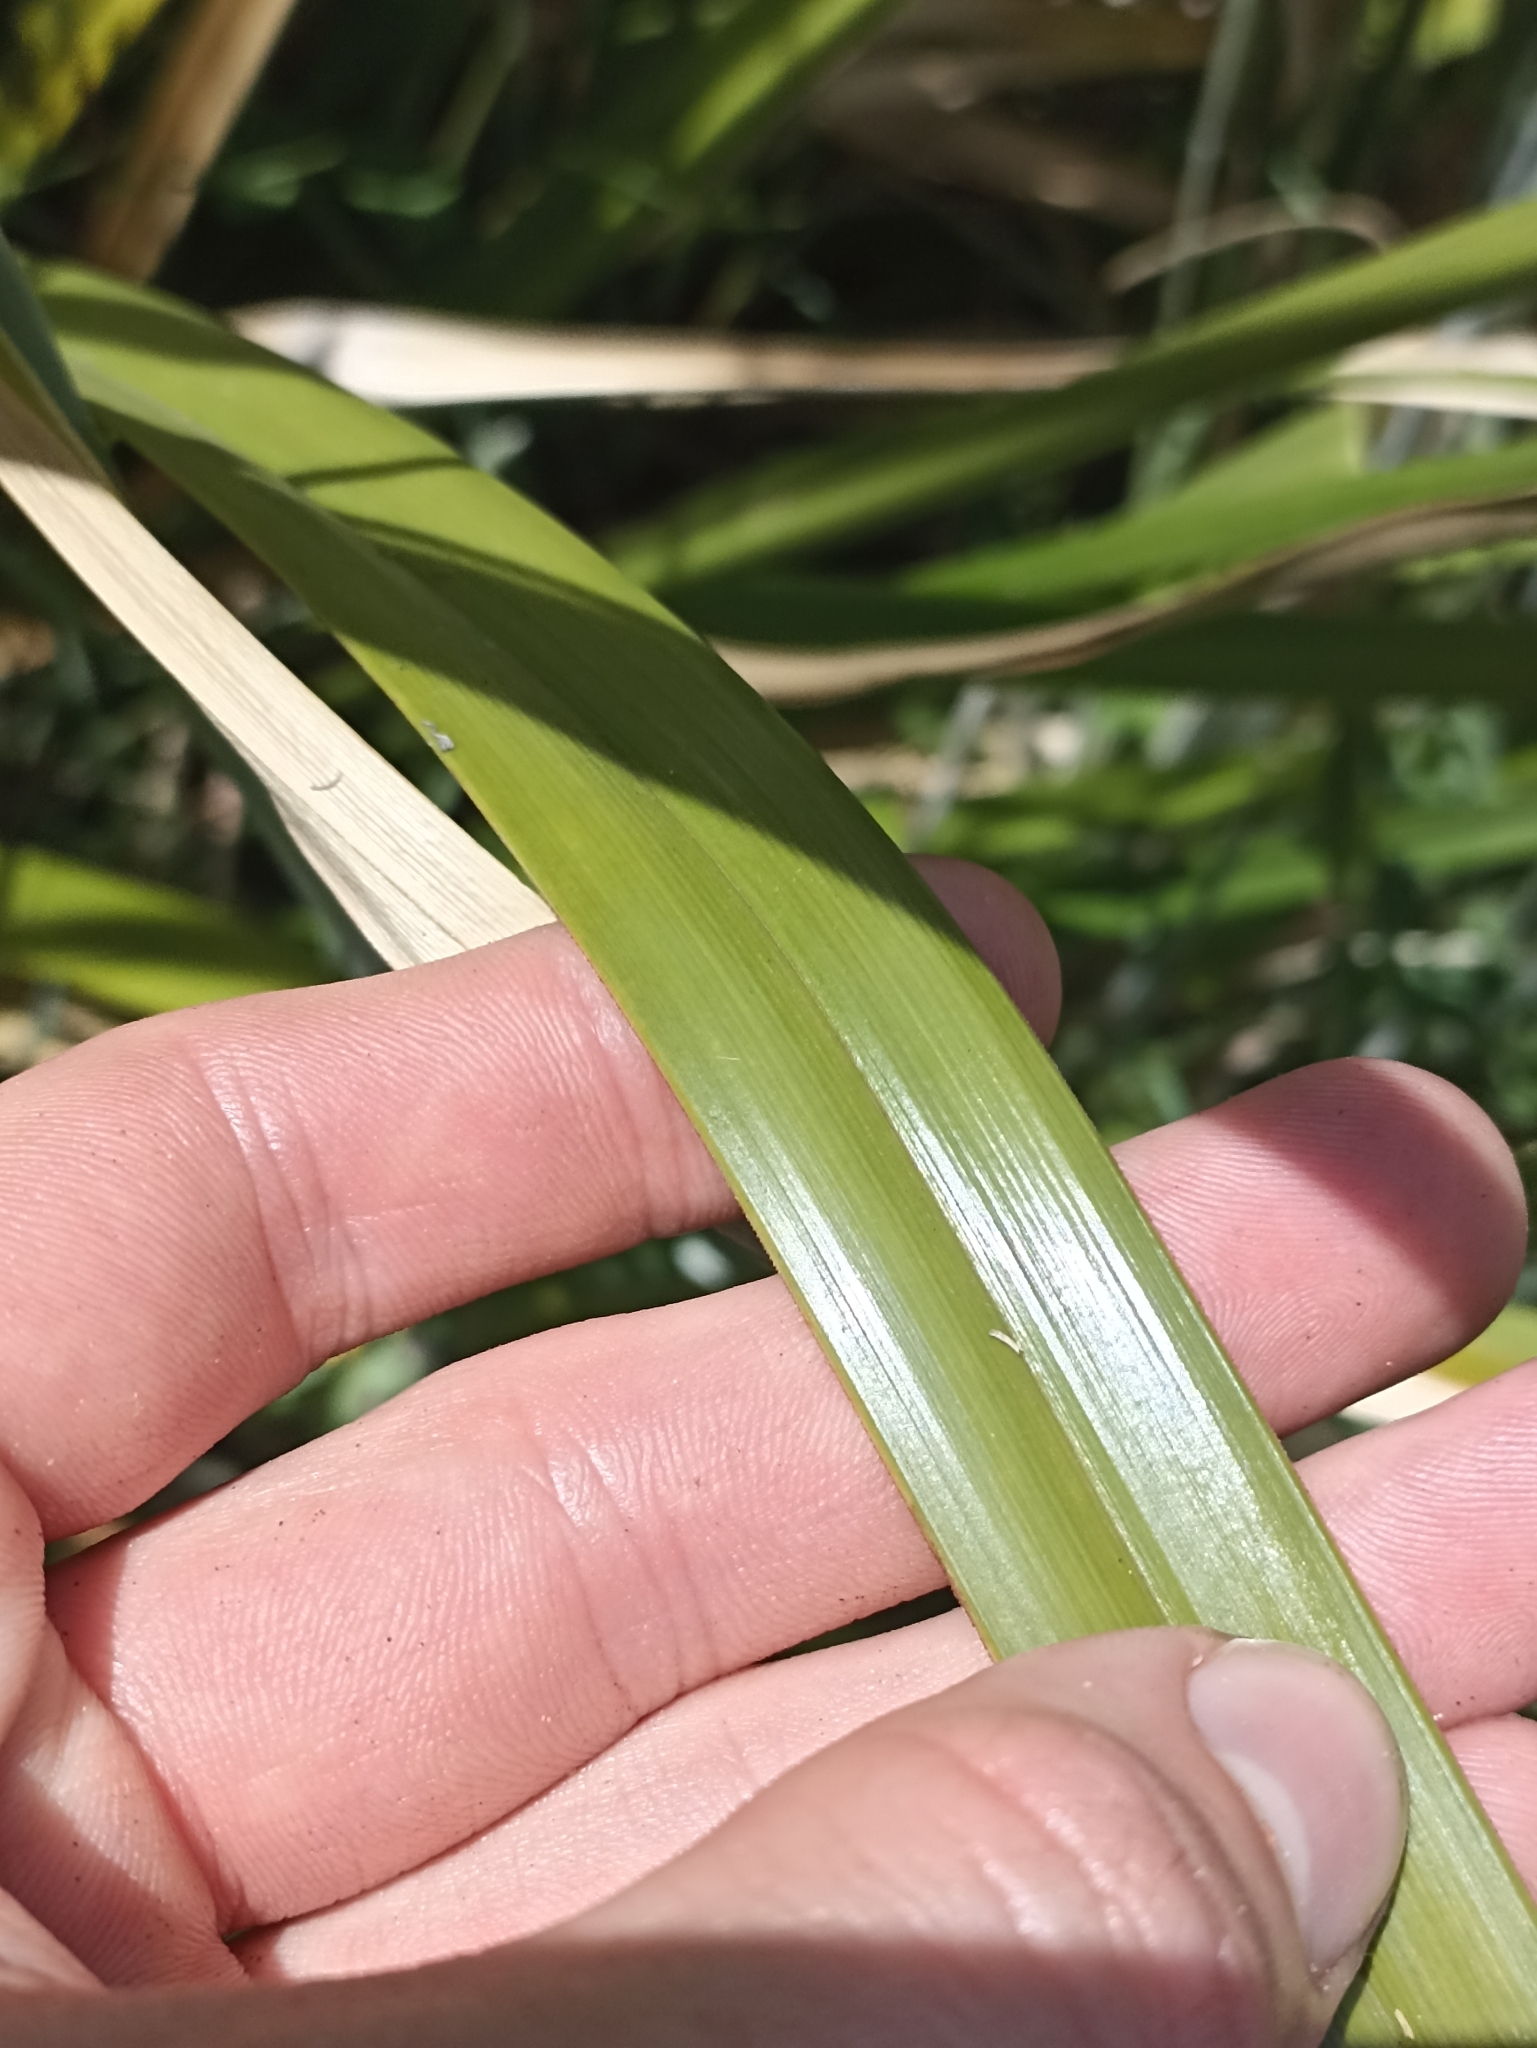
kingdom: Plantae
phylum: Tracheophyta
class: Liliopsida
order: Poales
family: Cyperaceae
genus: Cyperus
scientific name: Cyperus ustulatus
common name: Giant umbrella-sedge
